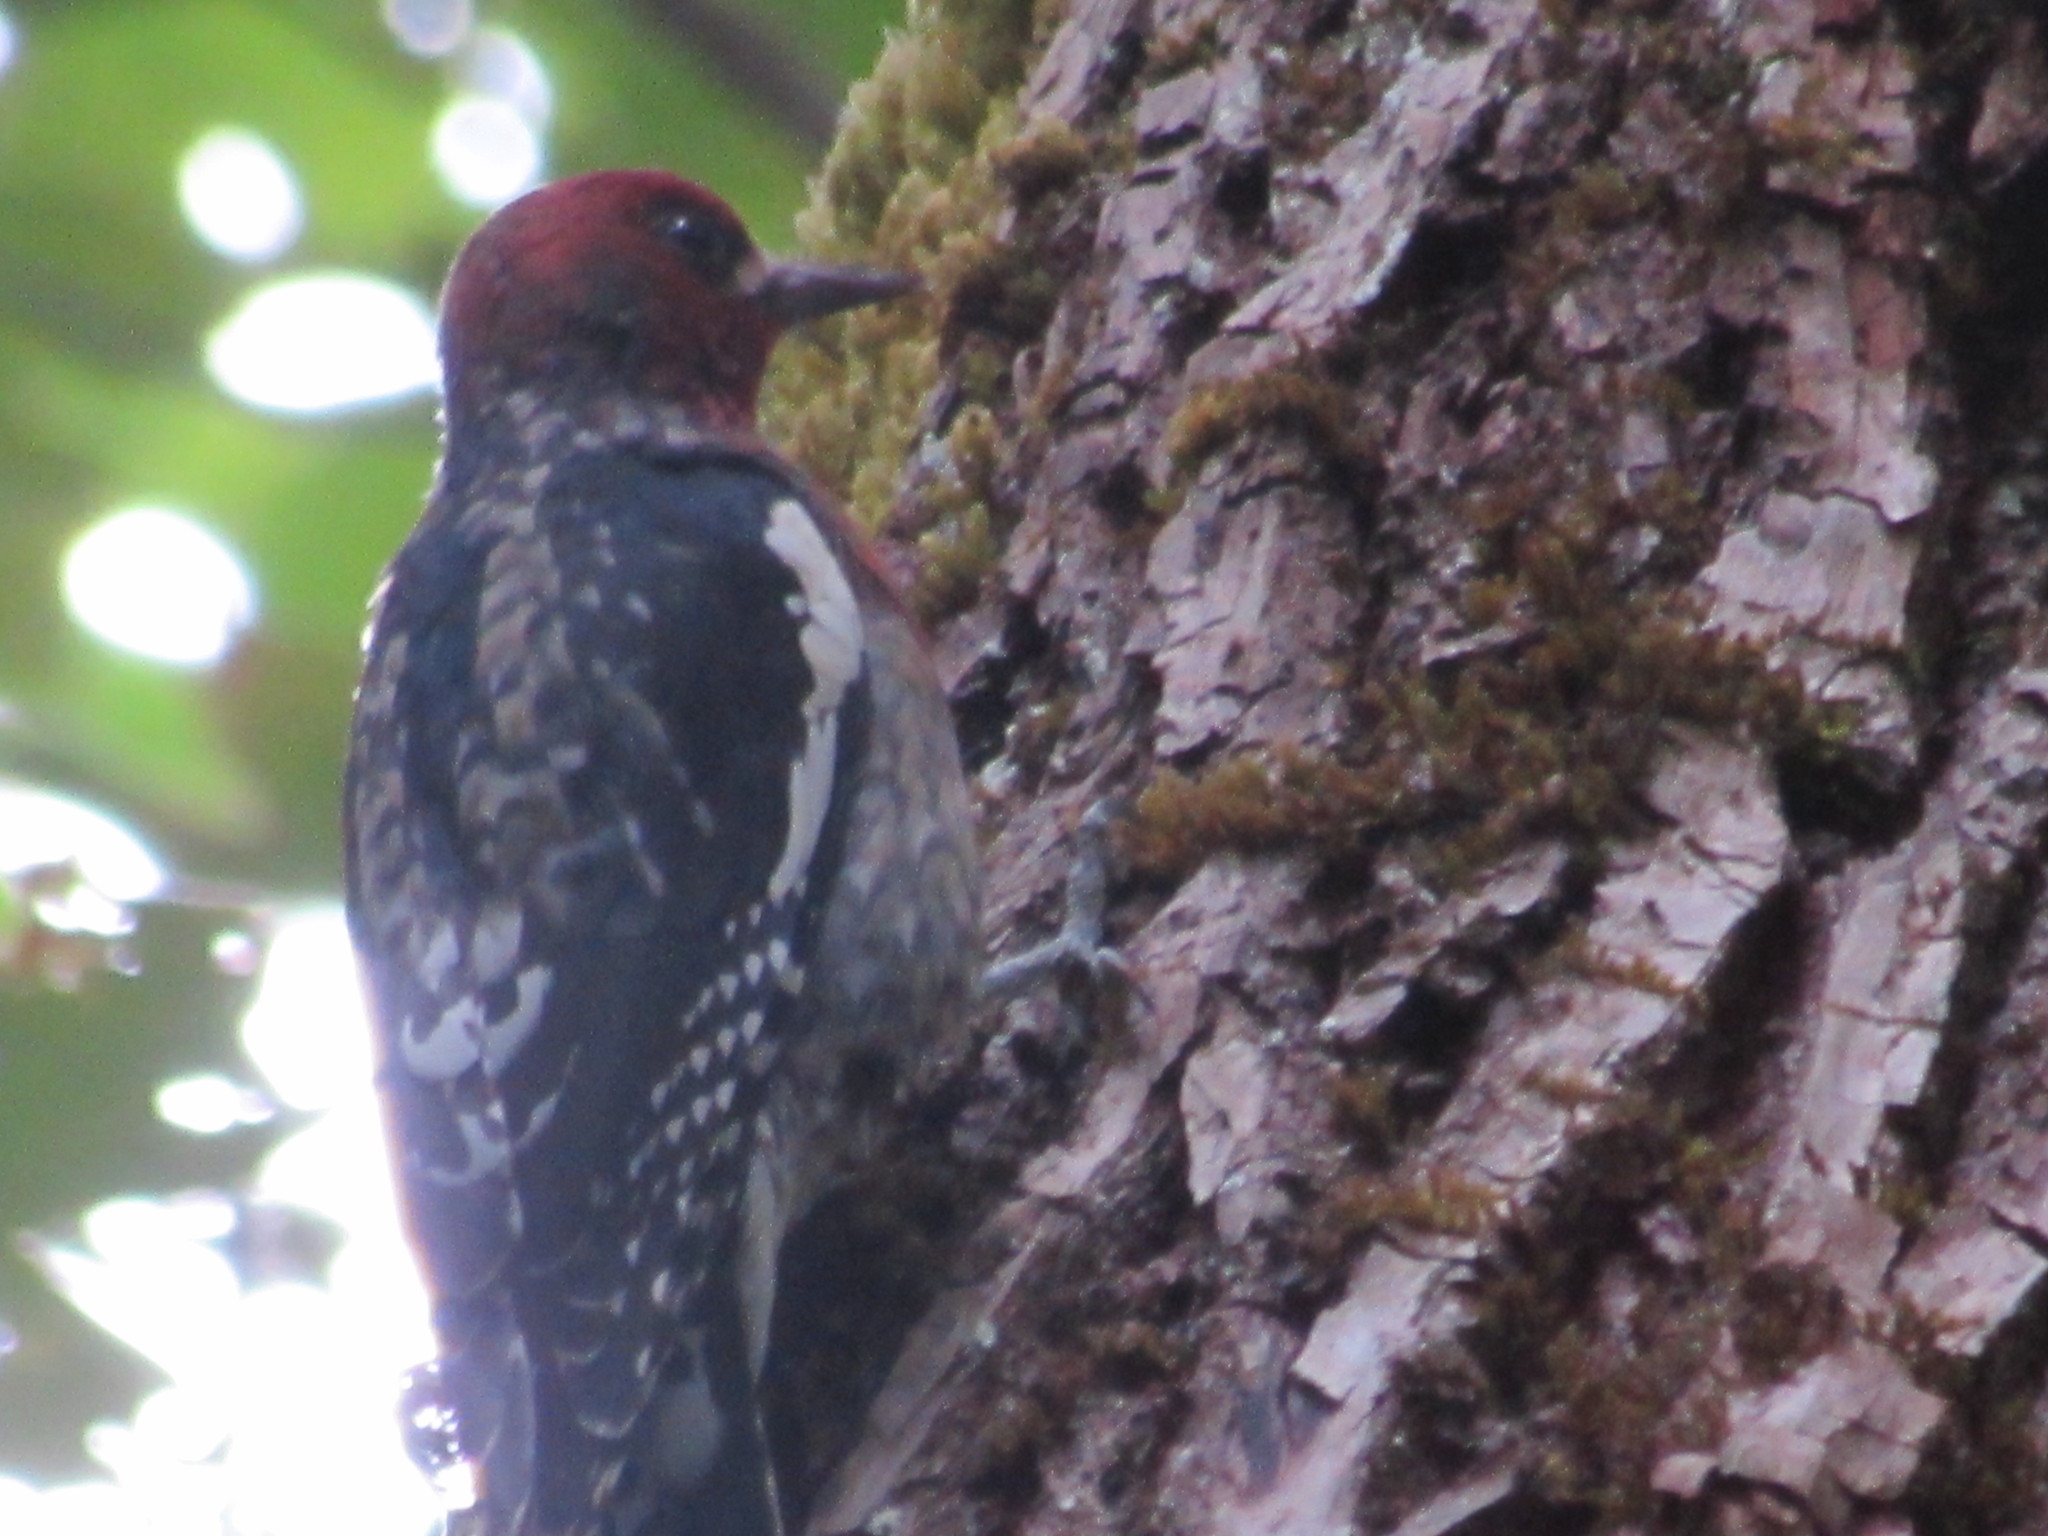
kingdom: Animalia
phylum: Chordata
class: Aves
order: Piciformes
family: Picidae
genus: Sphyrapicus
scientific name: Sphyrapicus ruber
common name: Red-breasted sapsucker
